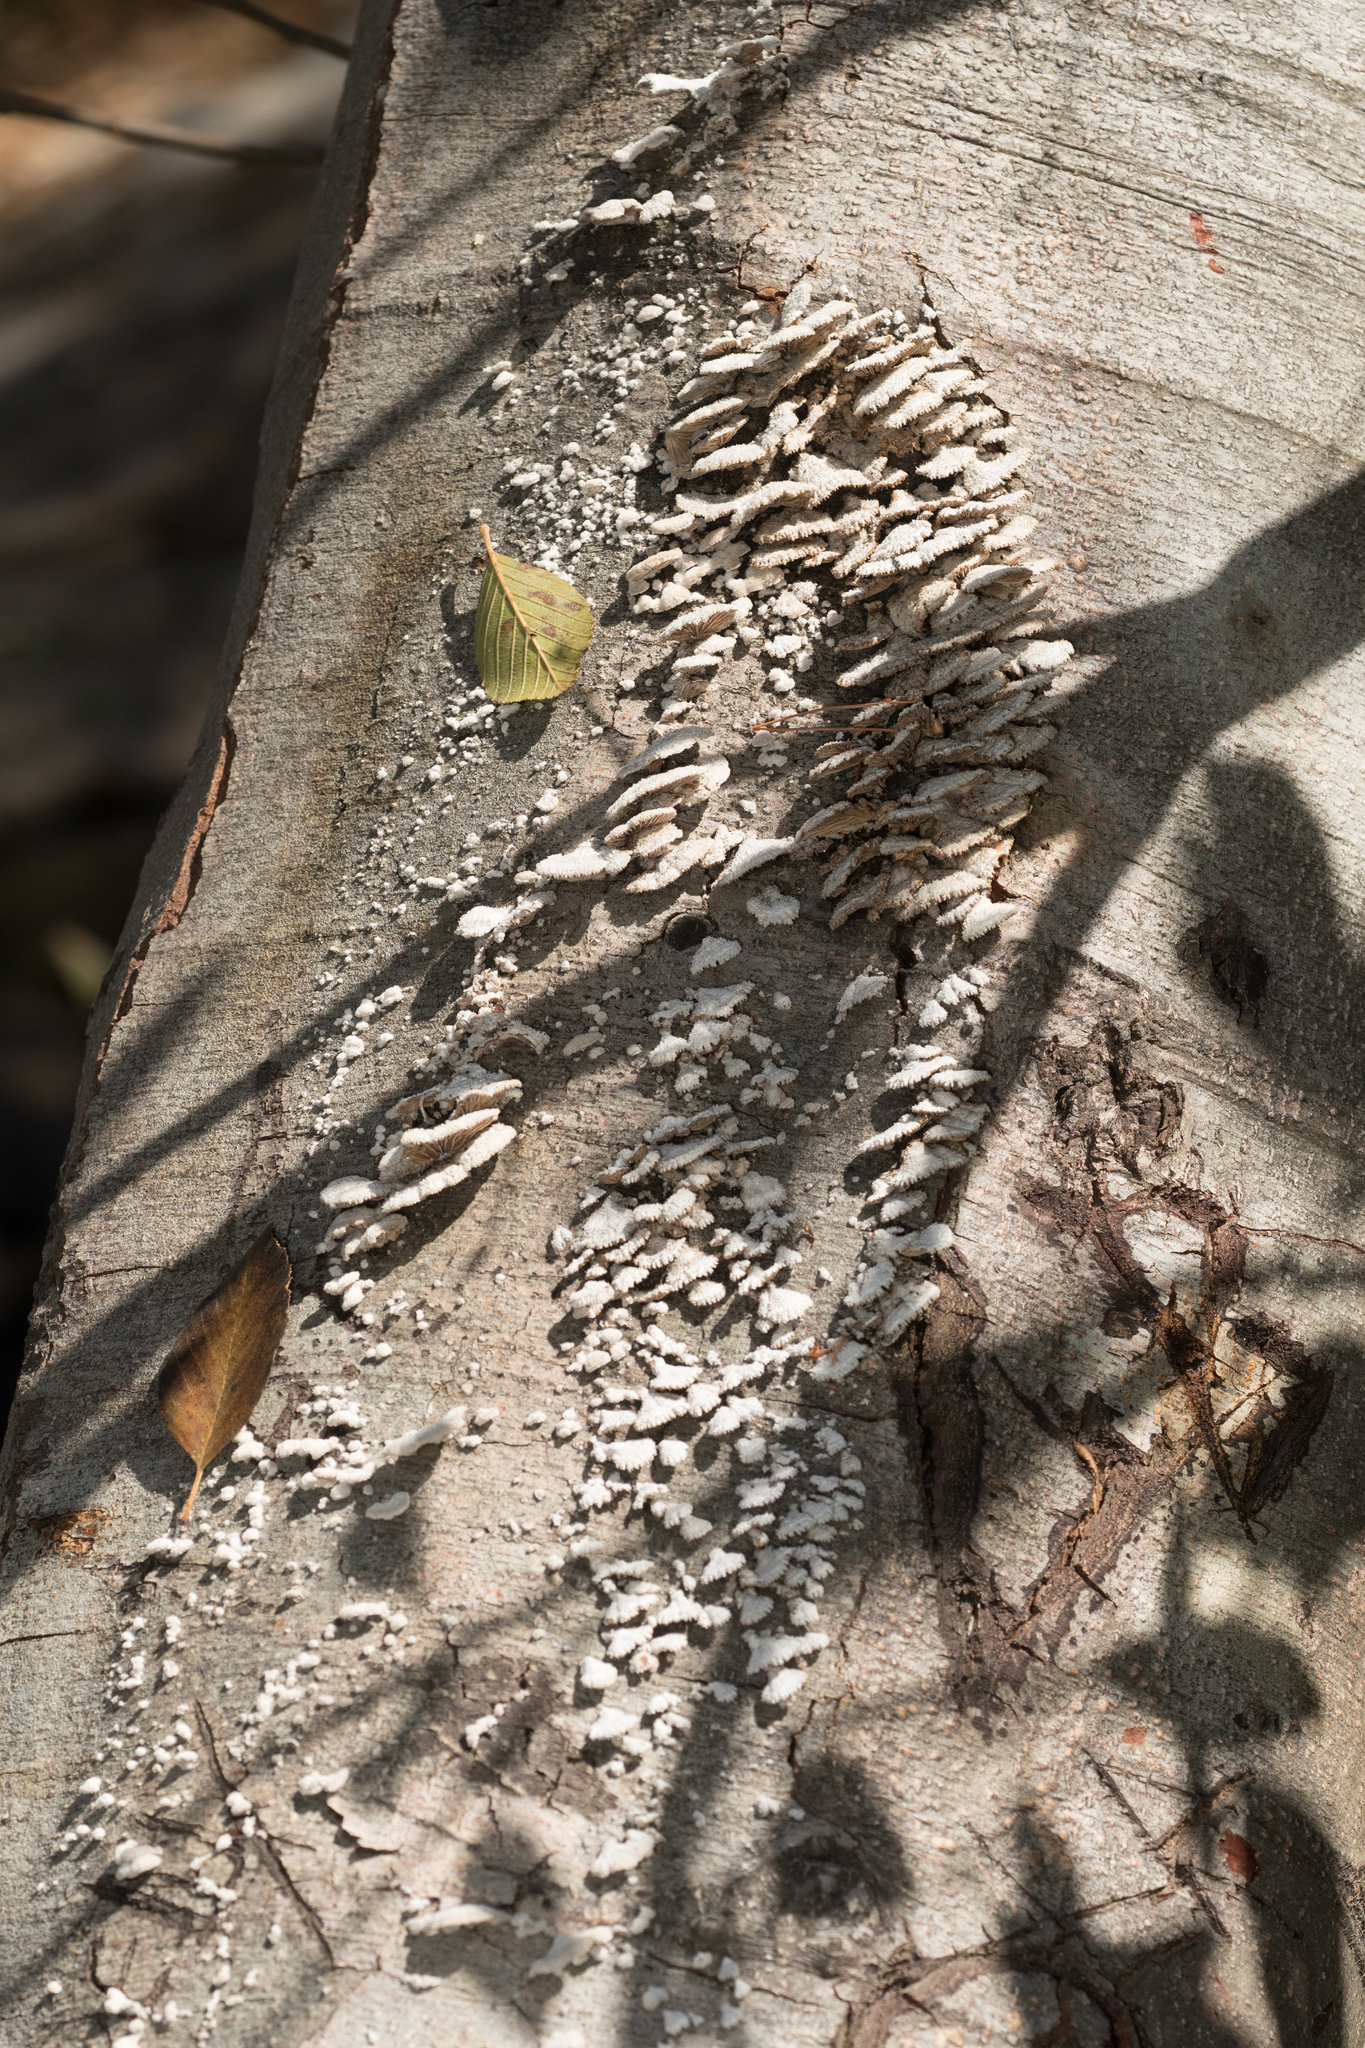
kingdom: Fungi
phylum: Basidiomycota
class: Agaricomycetes
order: Agaricales
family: Schizophyllaceae
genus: Schizophyllum
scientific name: Schizophyllum commune
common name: Common porecrust
